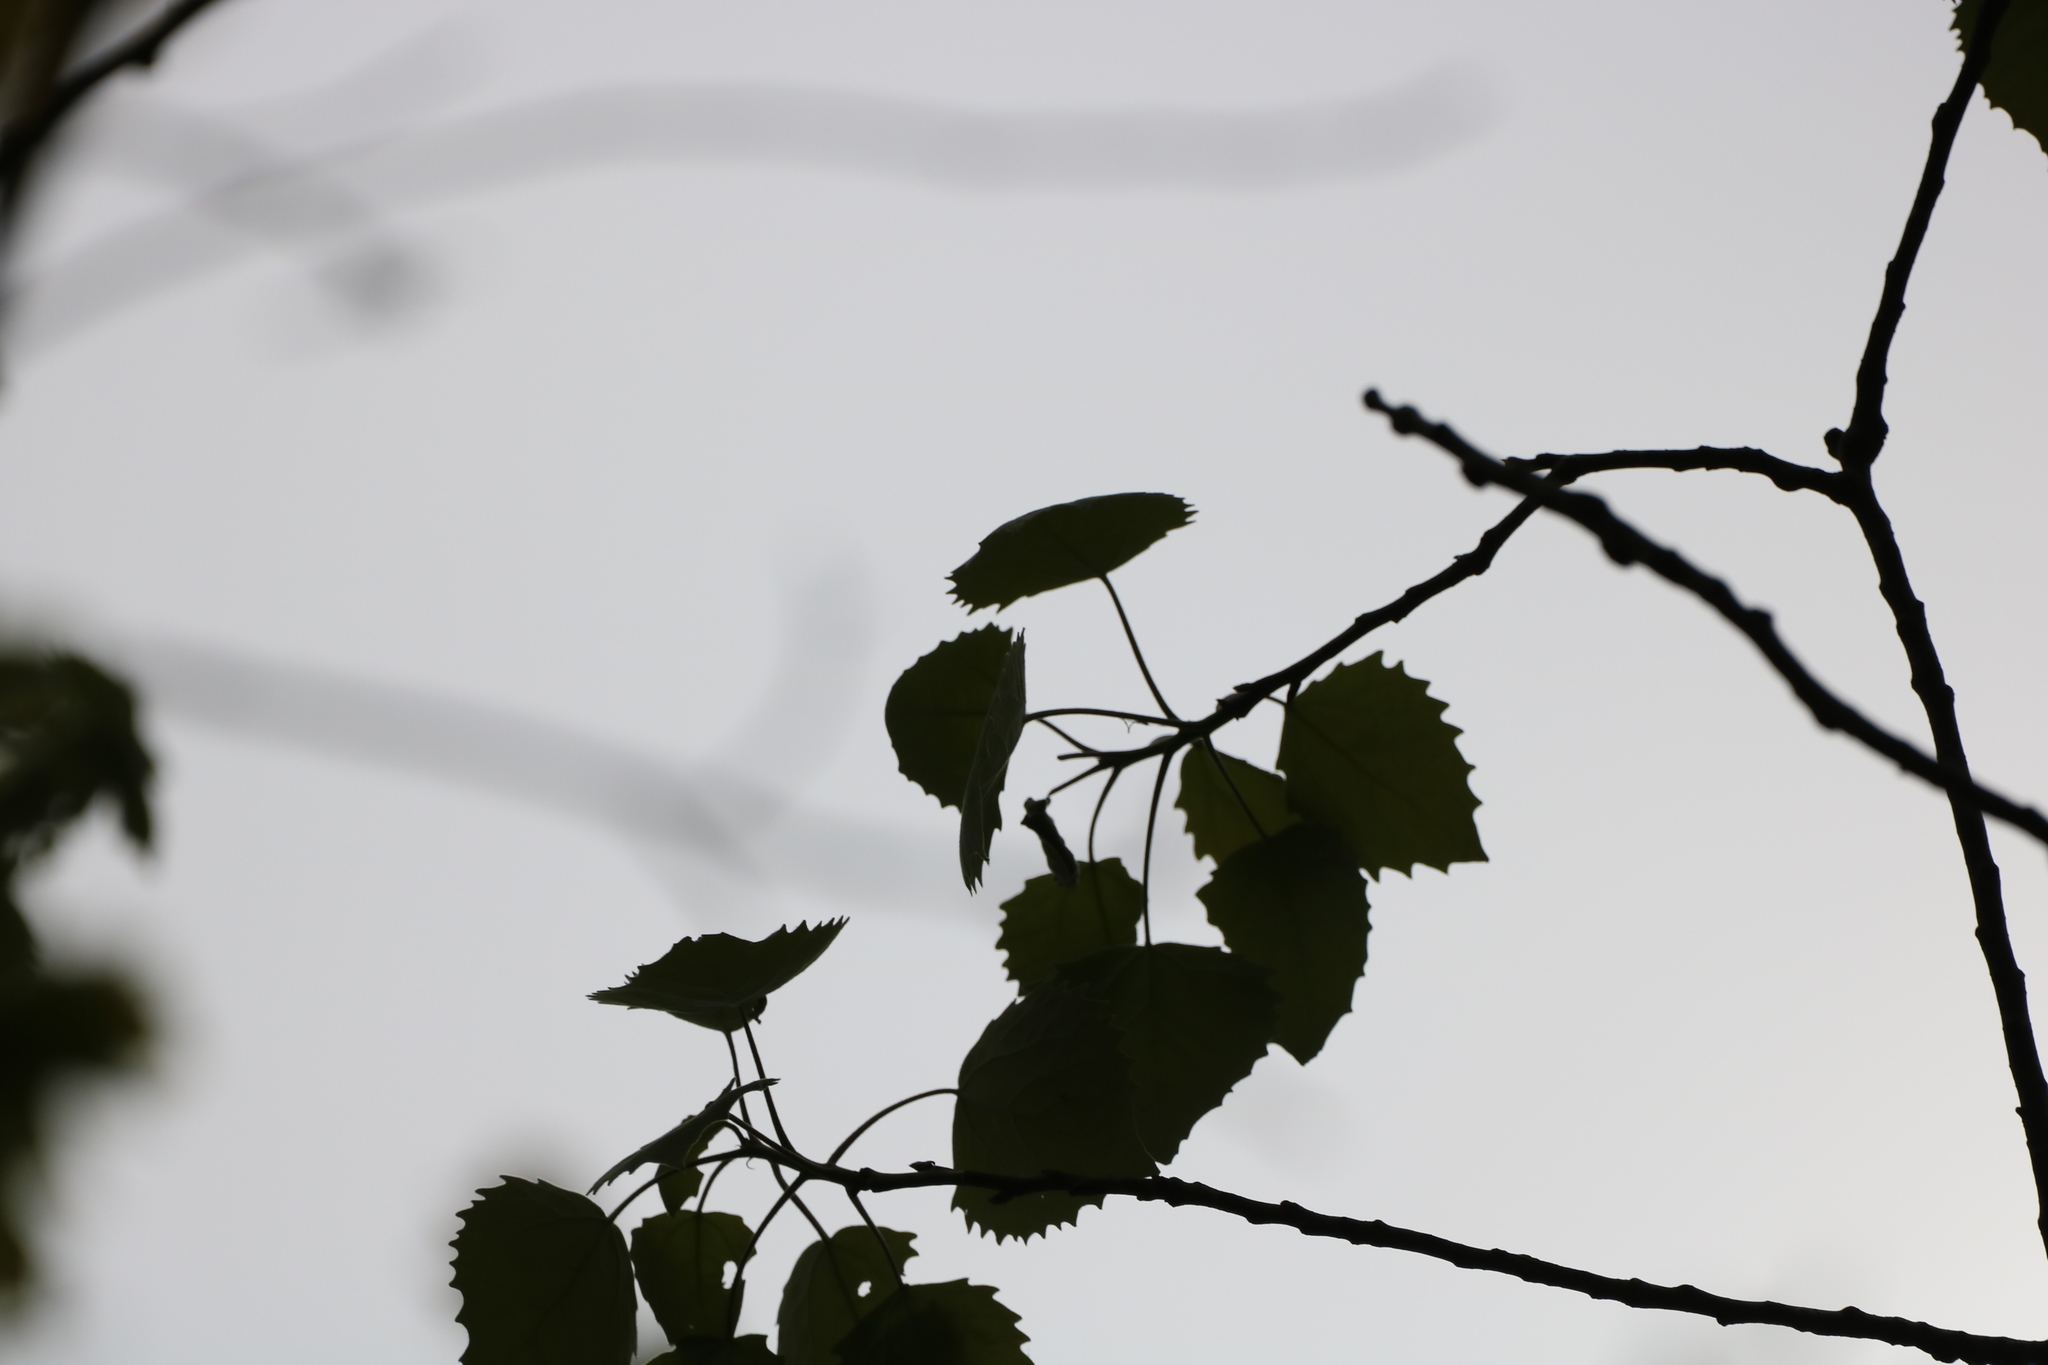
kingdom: Plantae
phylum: Tracheophyta
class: Magnoliopsida
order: Malpighiales
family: Salicaceae
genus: Populus
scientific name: Populus grandidentata
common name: Bigtooth aspen
